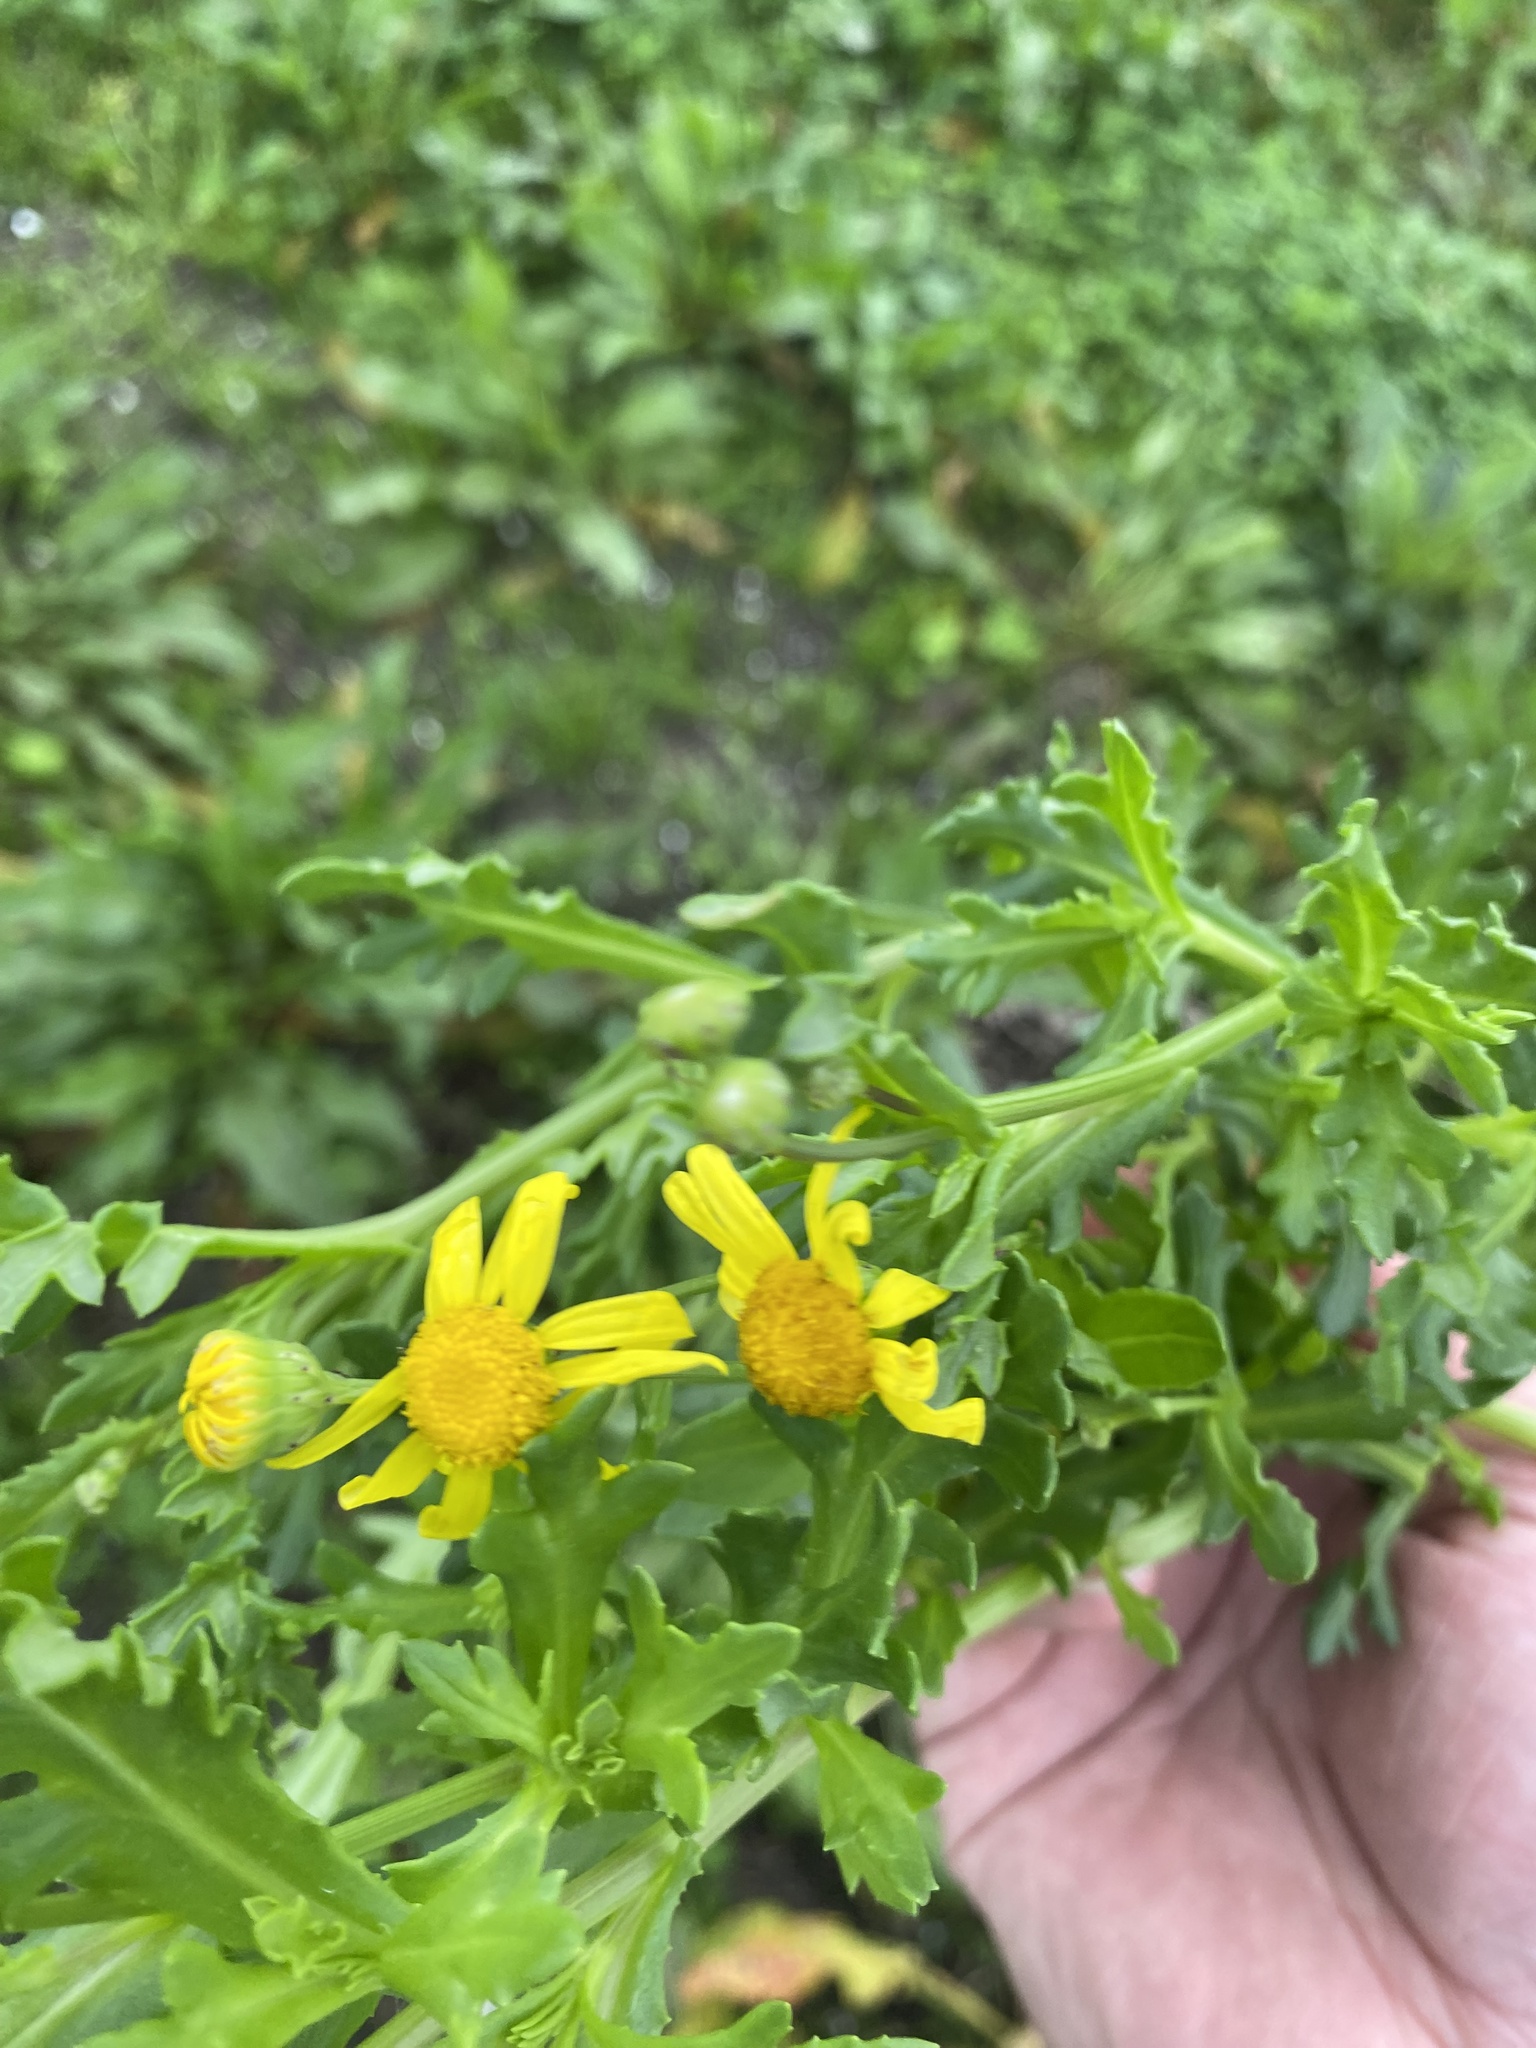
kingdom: Plantae
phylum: Tracheophyta
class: Magnoliopsida
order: Asterales
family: Asteraceae
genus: Senecio
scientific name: Senecio skirrhodon
